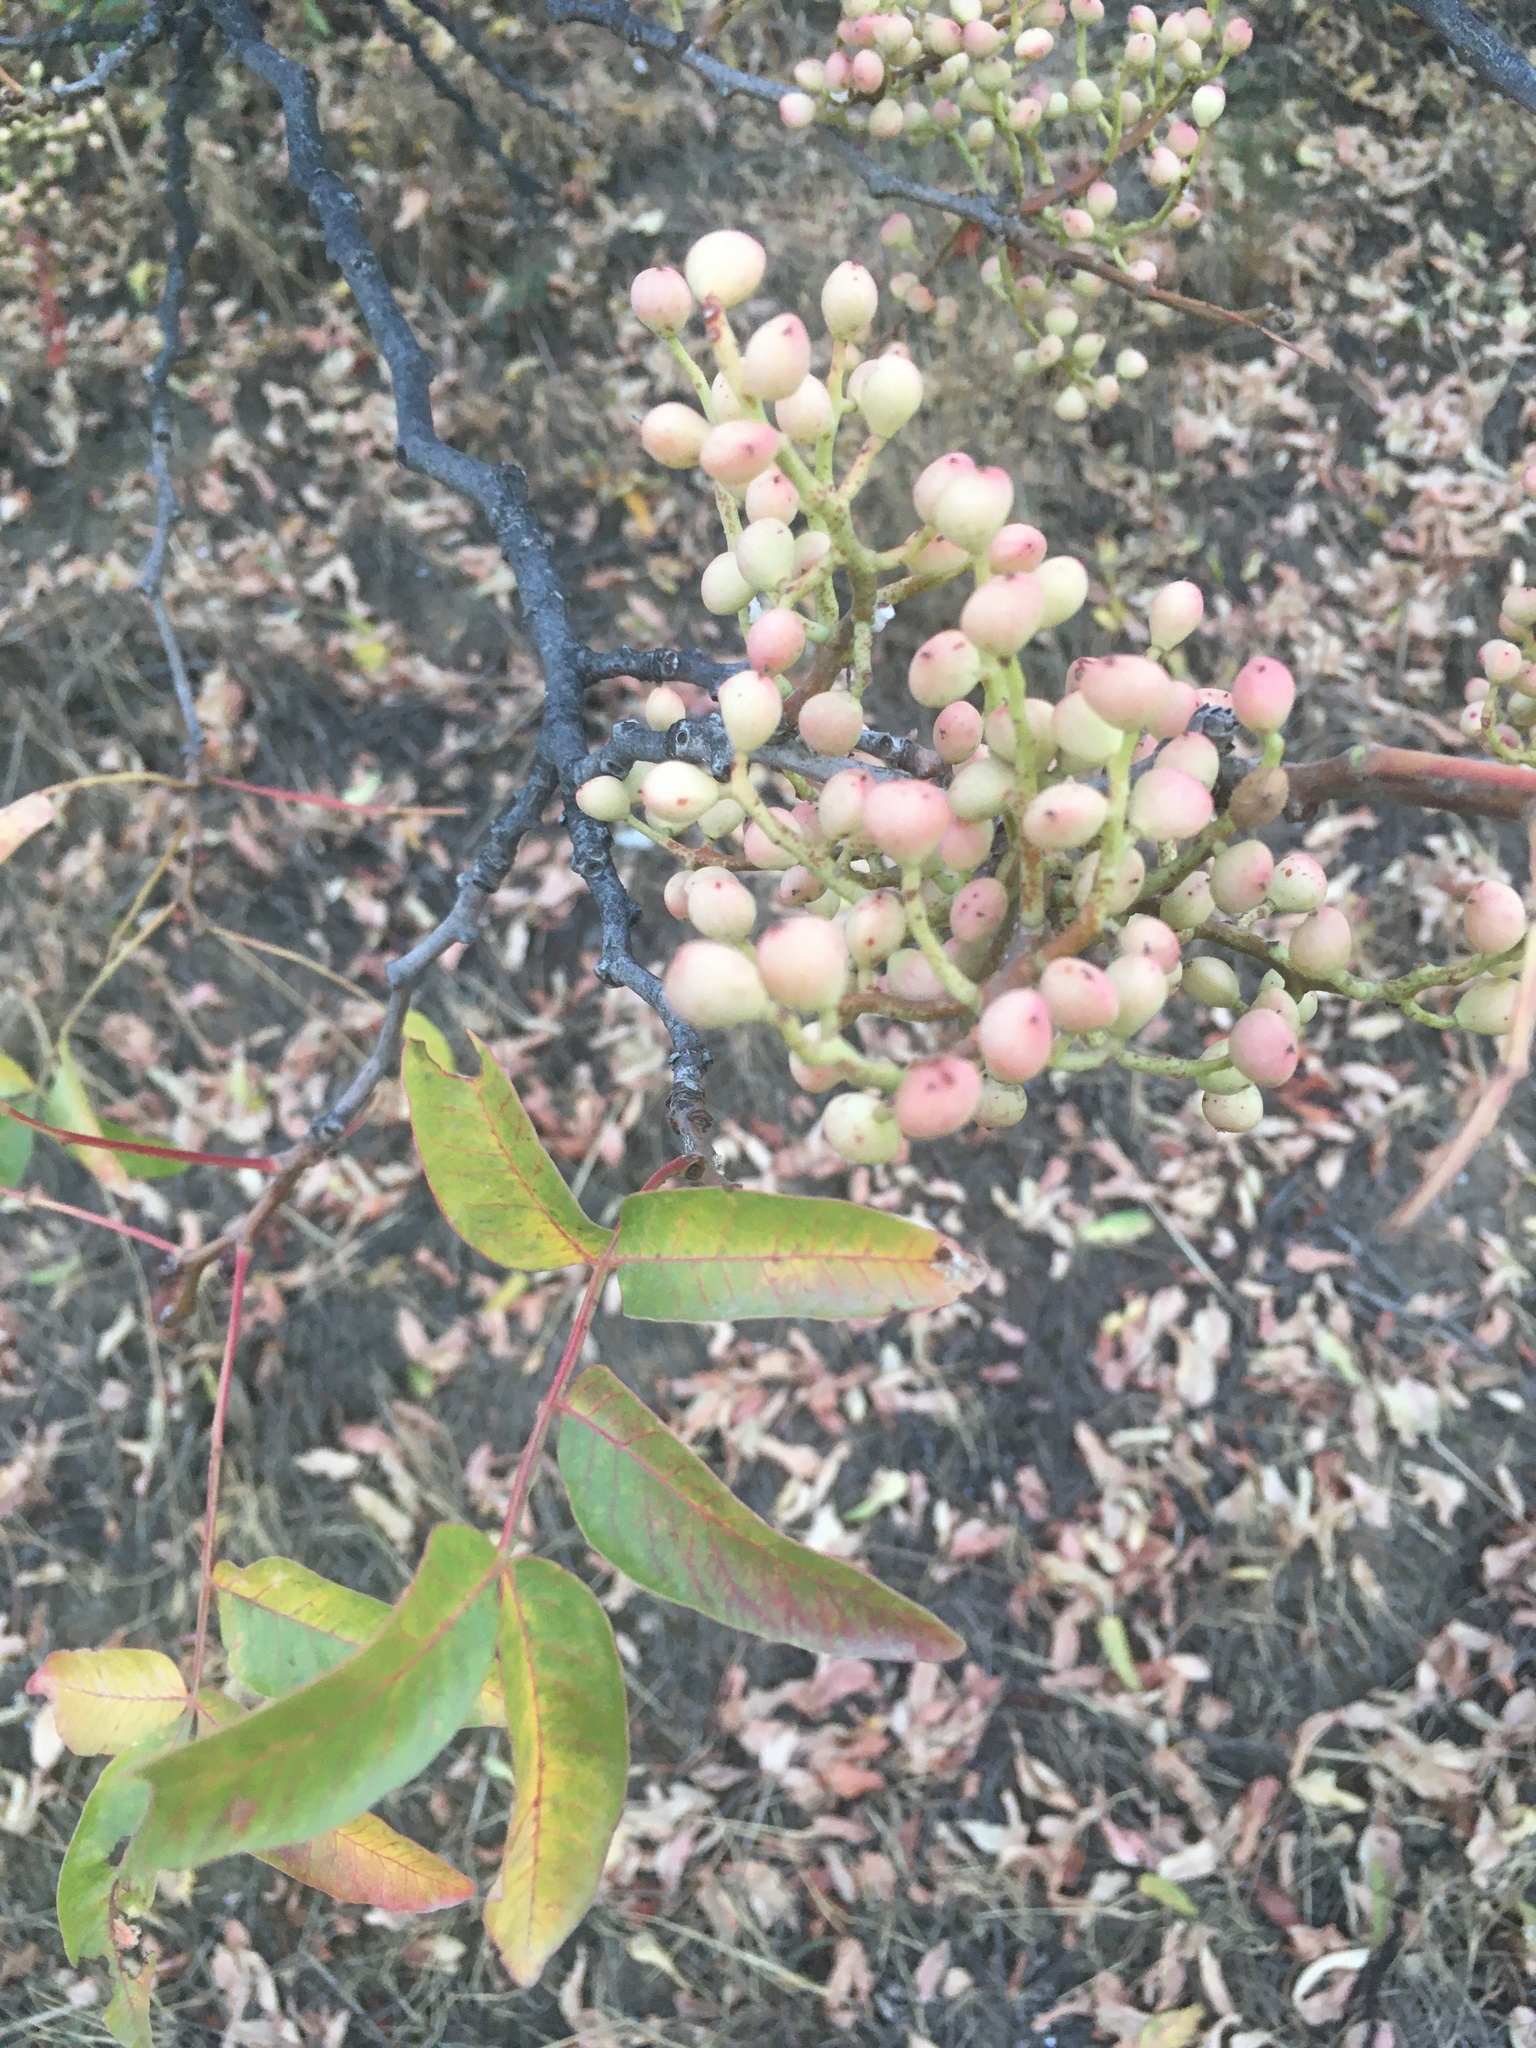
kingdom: Plantae
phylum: Tracheophyta
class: Magnoliopsida
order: Sapindales
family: Anacardiaceae
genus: Pistacia
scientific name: Pistacia atlantica
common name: Mt. atlas mastic tree
